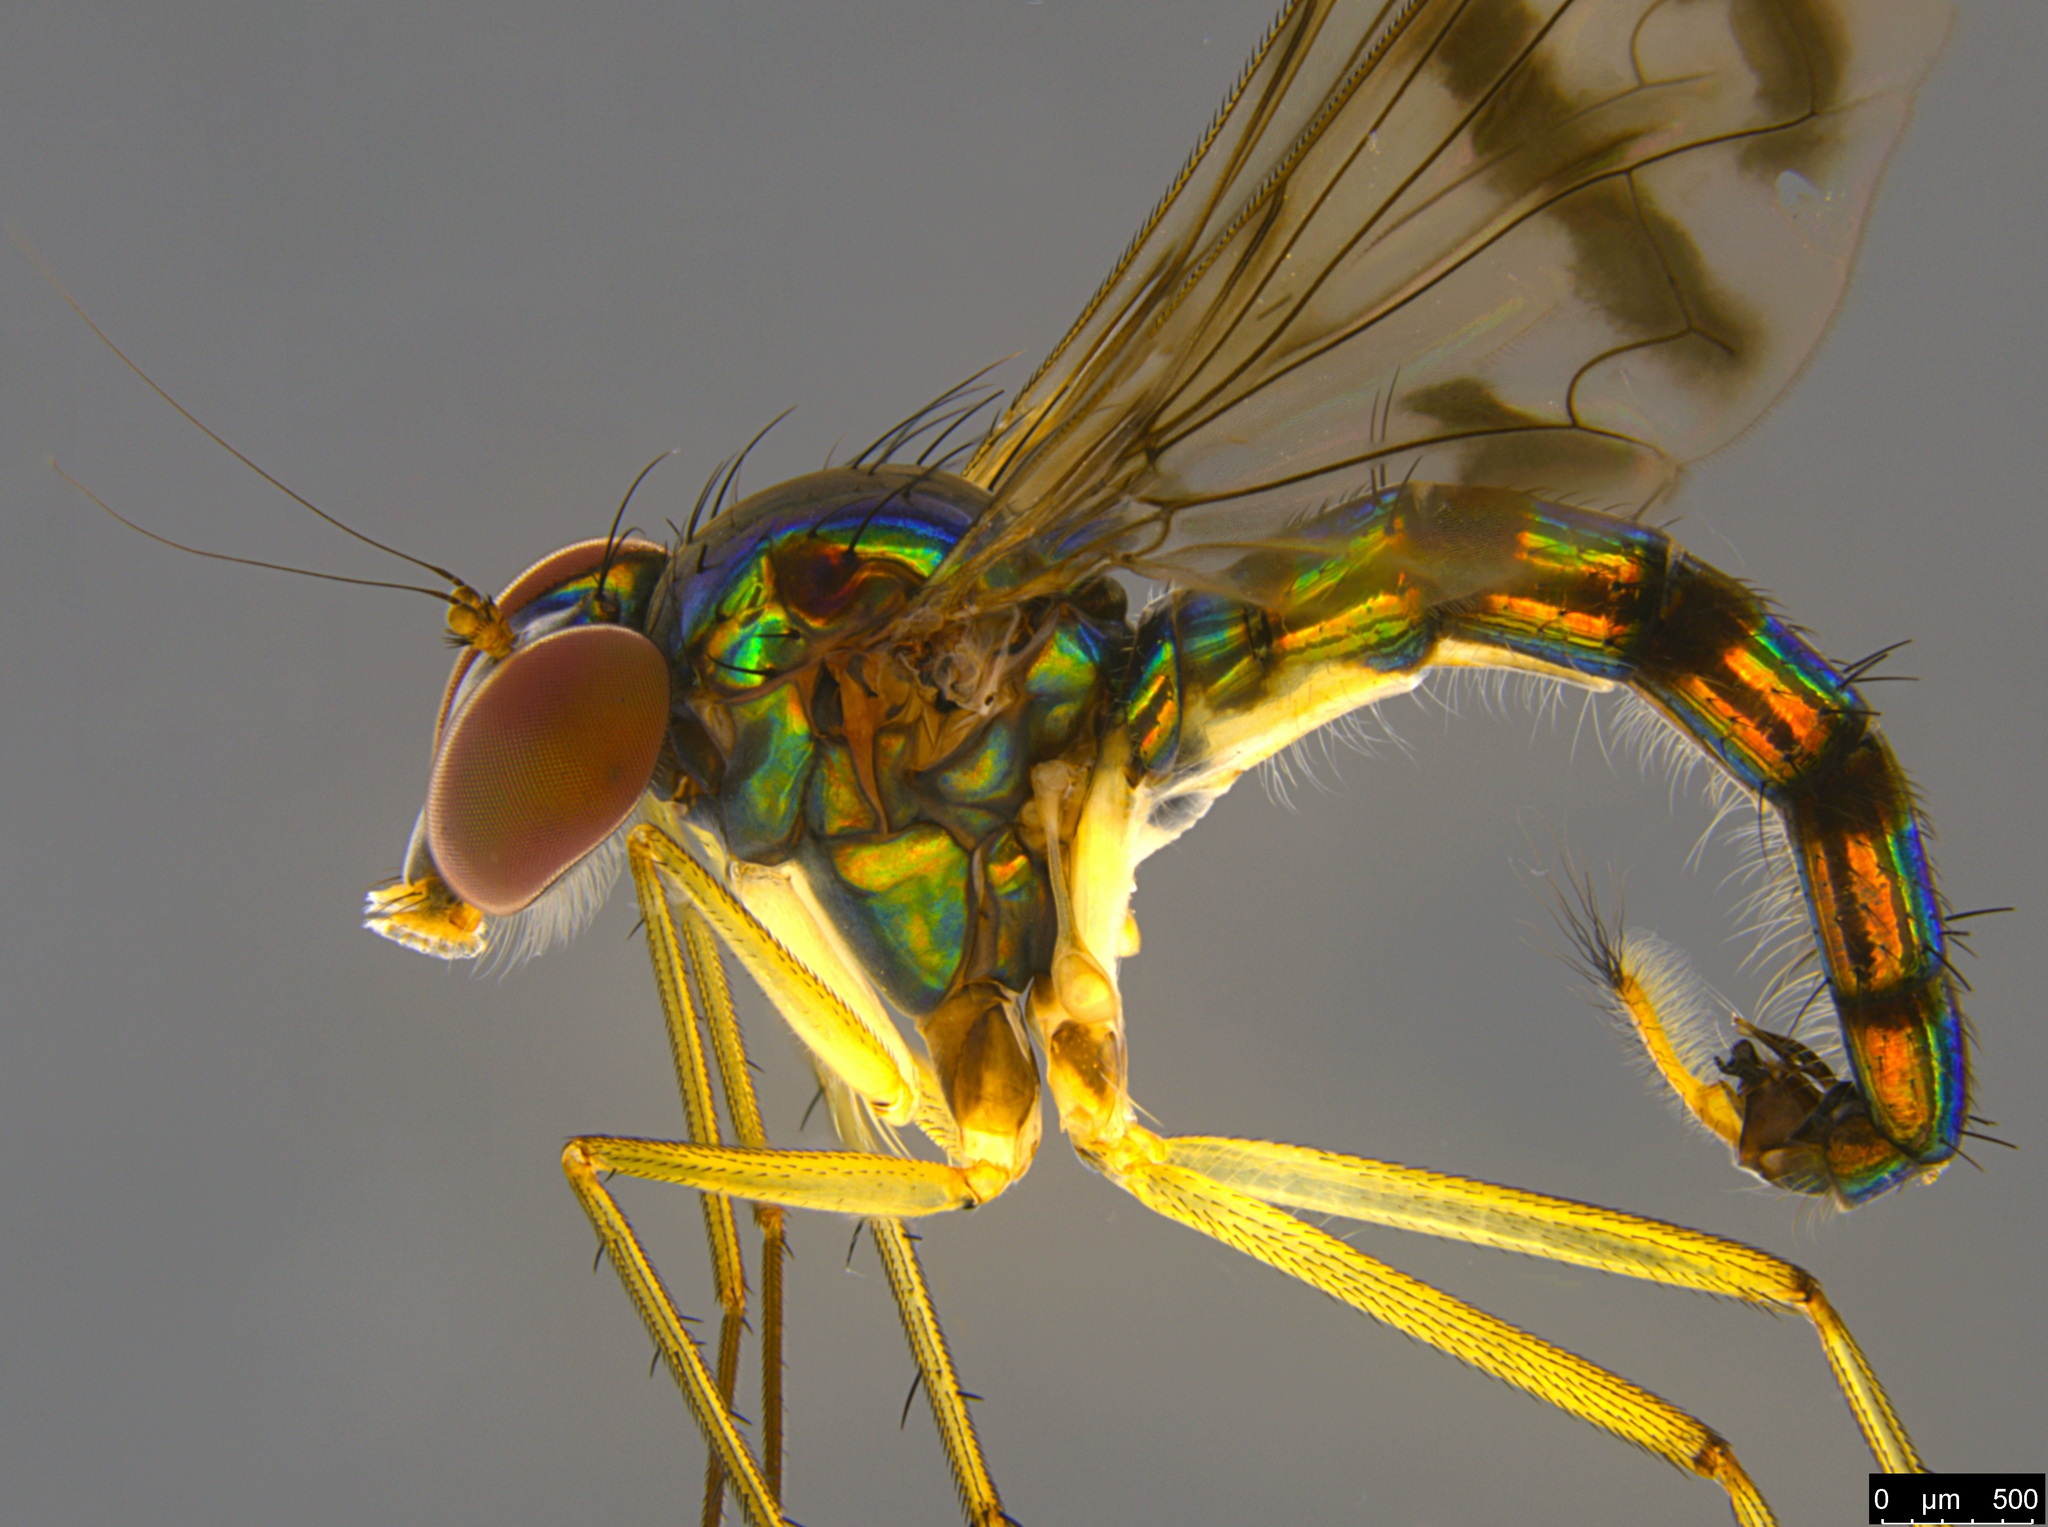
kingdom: Animalia
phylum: Arthropoda
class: Insecta
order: Diptera
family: Dolichopodidae
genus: Heteropsilopus
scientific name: Heteropsilopus ingenuum
